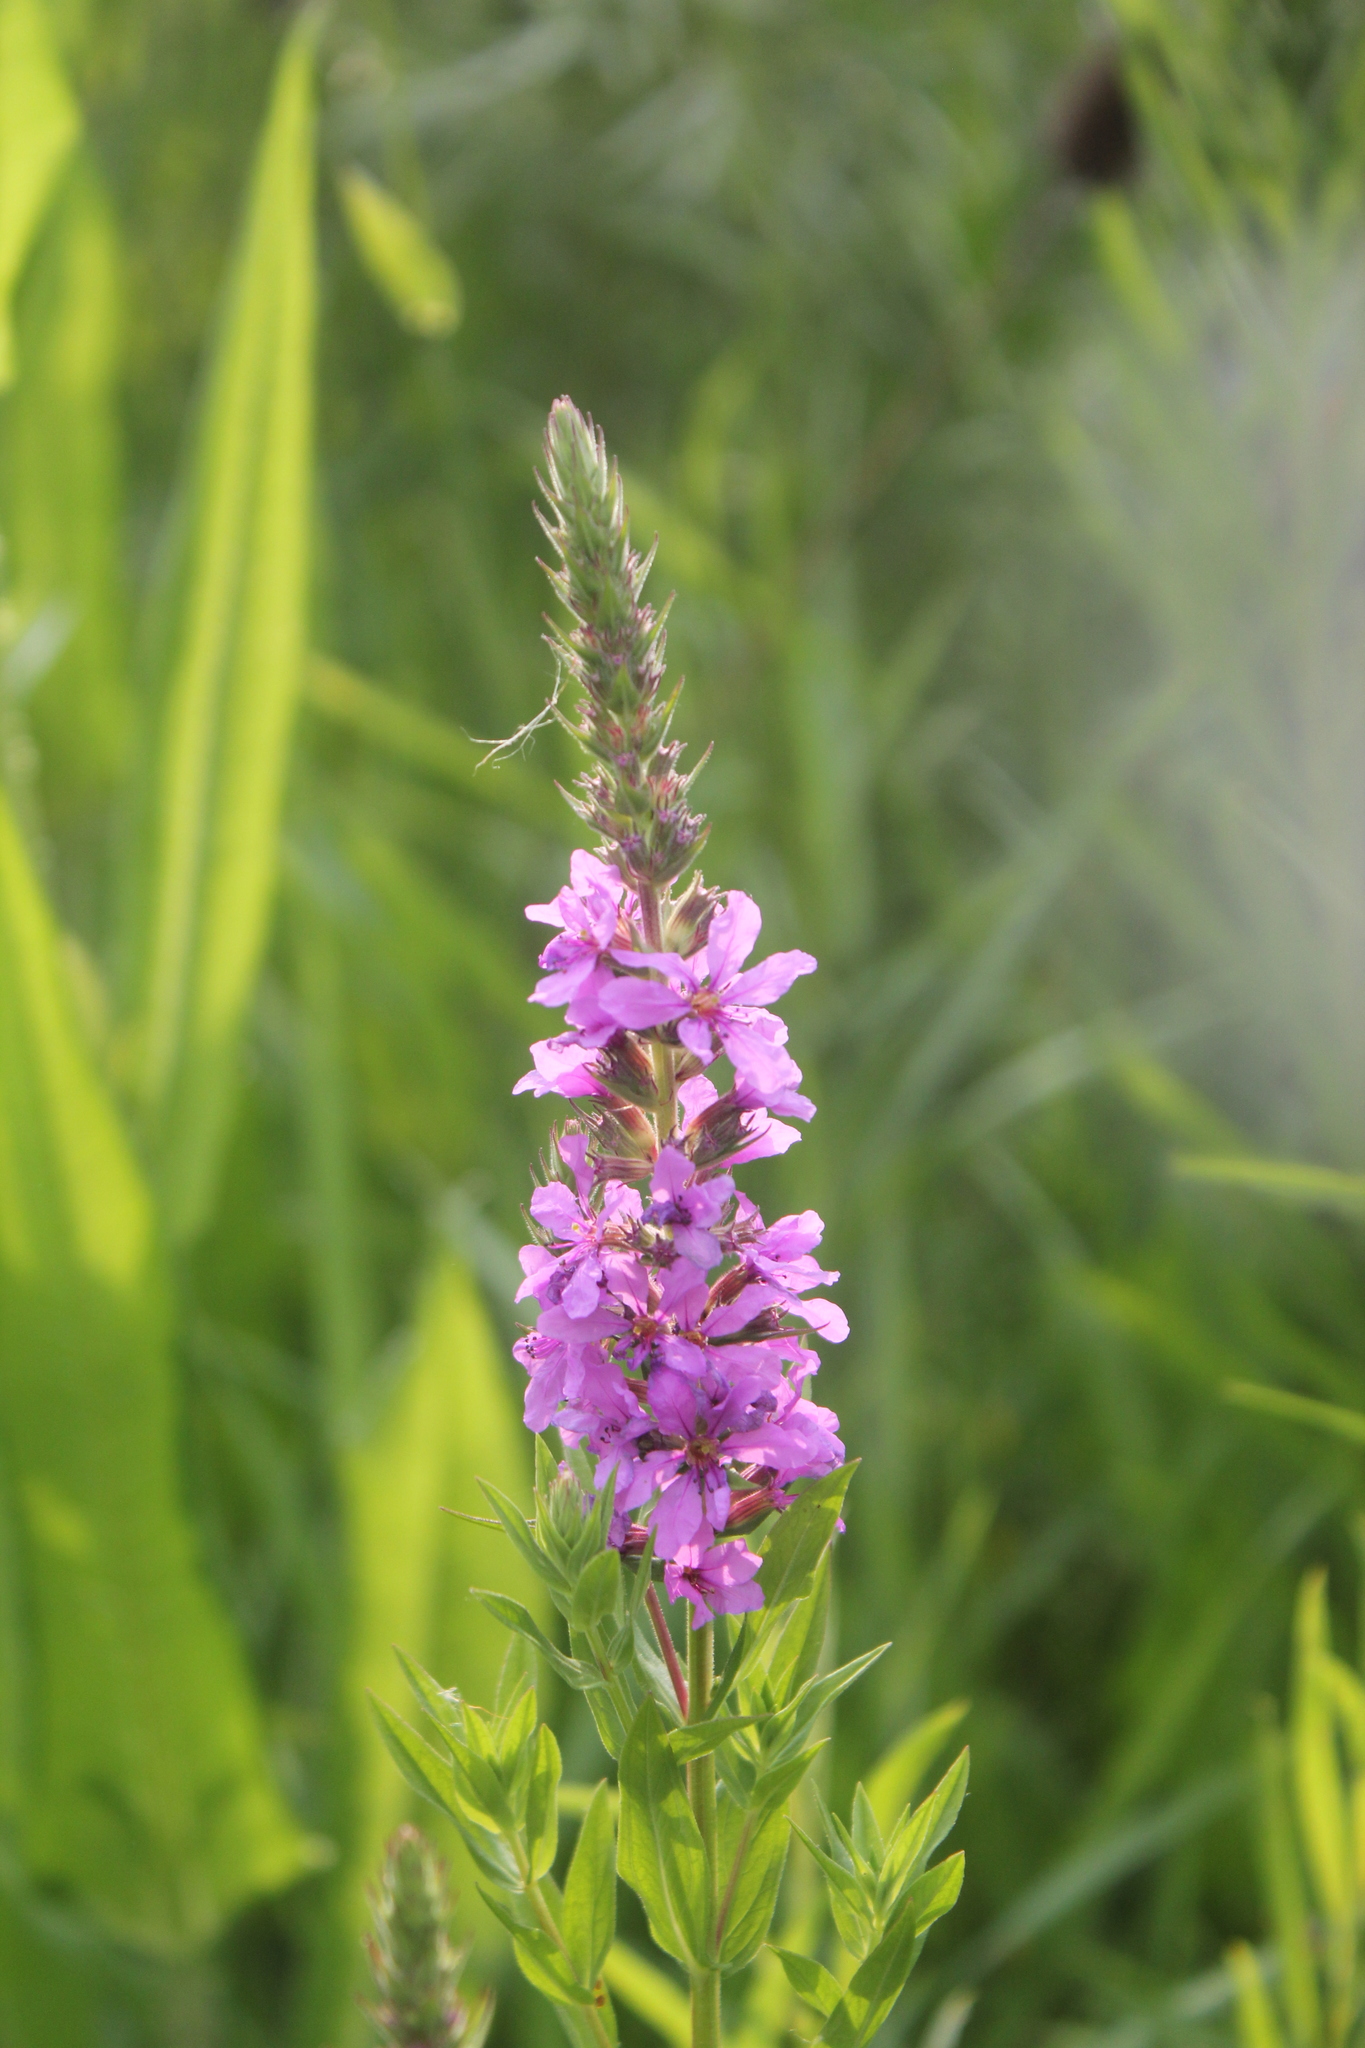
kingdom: Plantae
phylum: Tracheophyta
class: Magnoliopsida
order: Myrtales
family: Lythraceae
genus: Lythrum
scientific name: Lythrum salicaria
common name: Purple loosestrife
